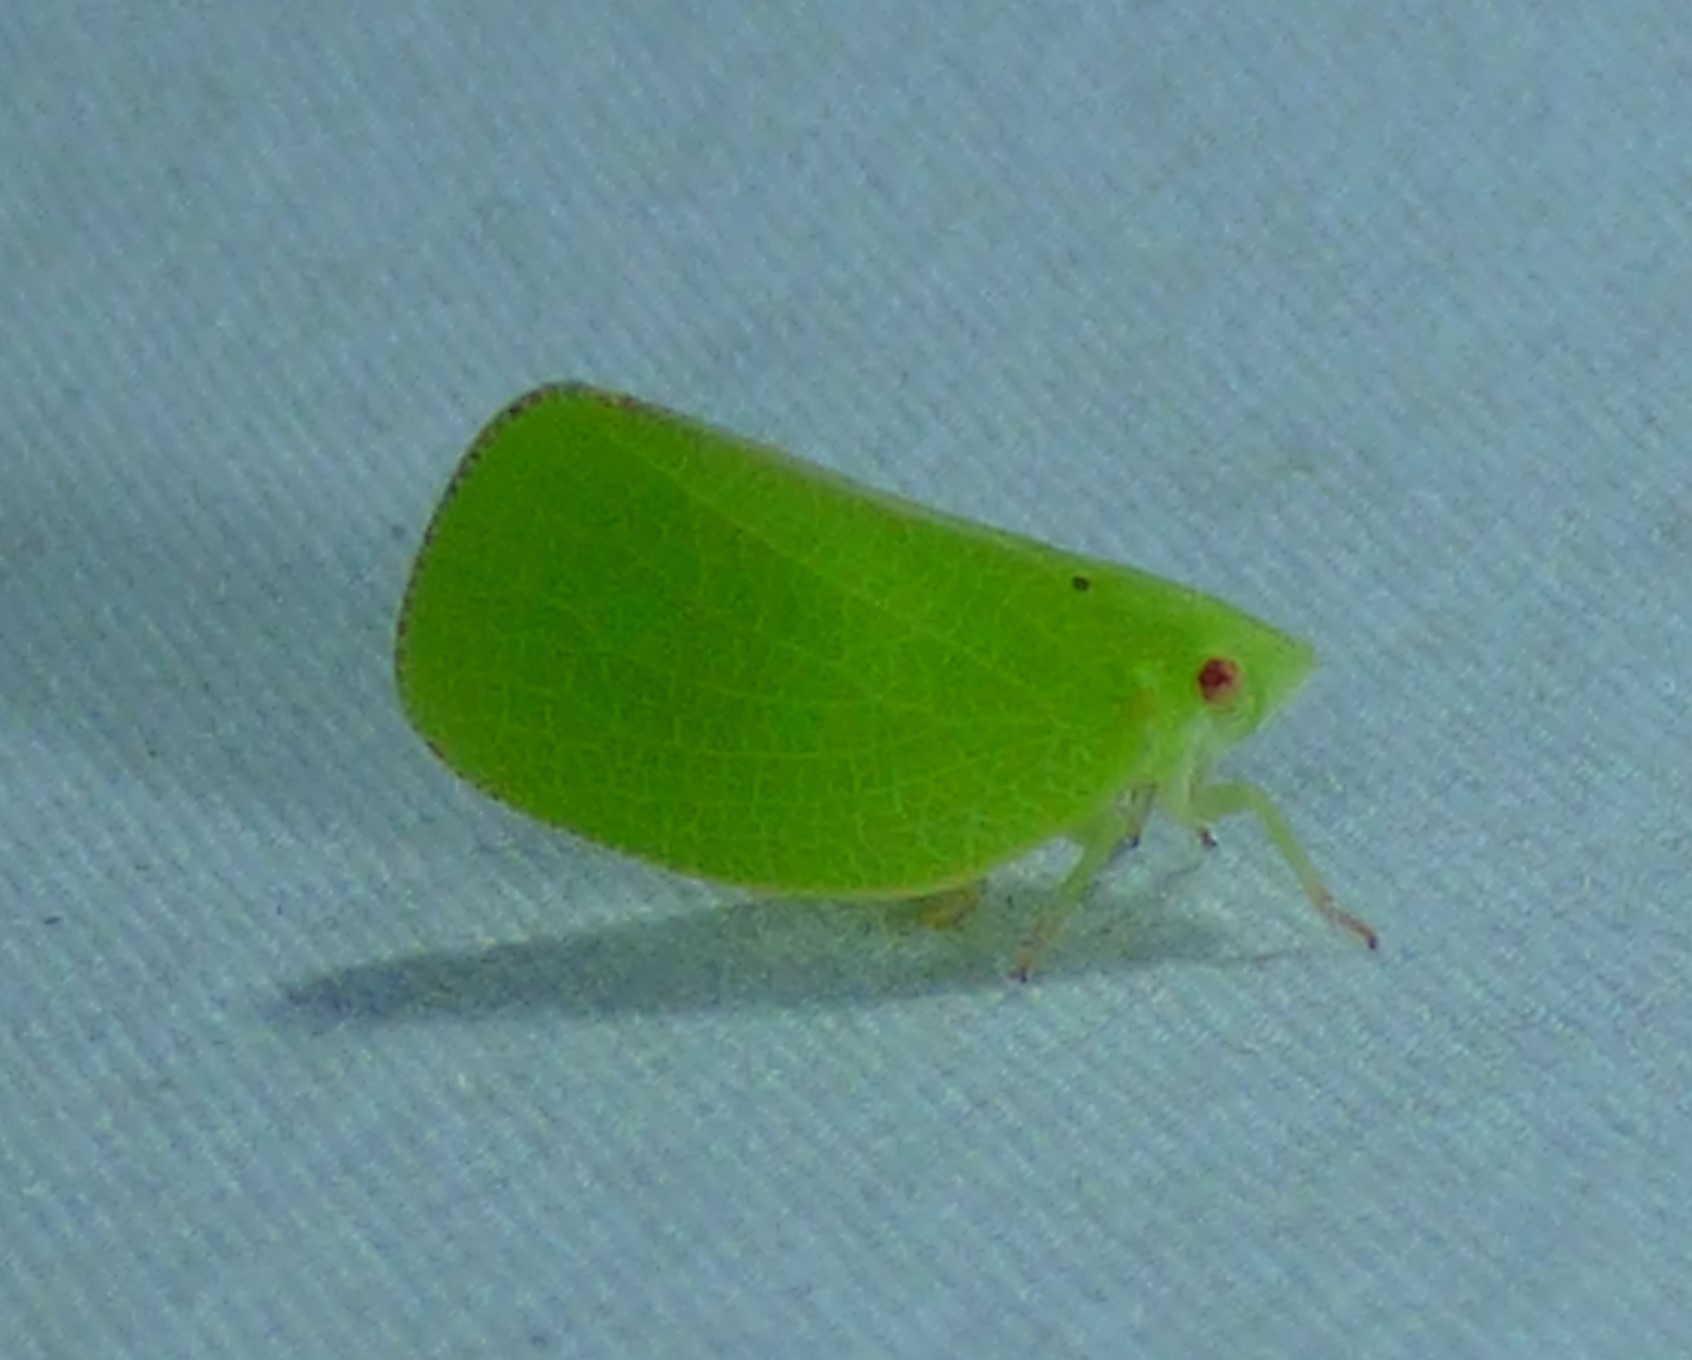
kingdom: Animalia
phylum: Arthropoda
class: Insecta
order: Hemiptera
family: Acanaloniidae
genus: Acanalonia
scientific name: Acanalonia conica
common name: Green cone-headed planthopper
